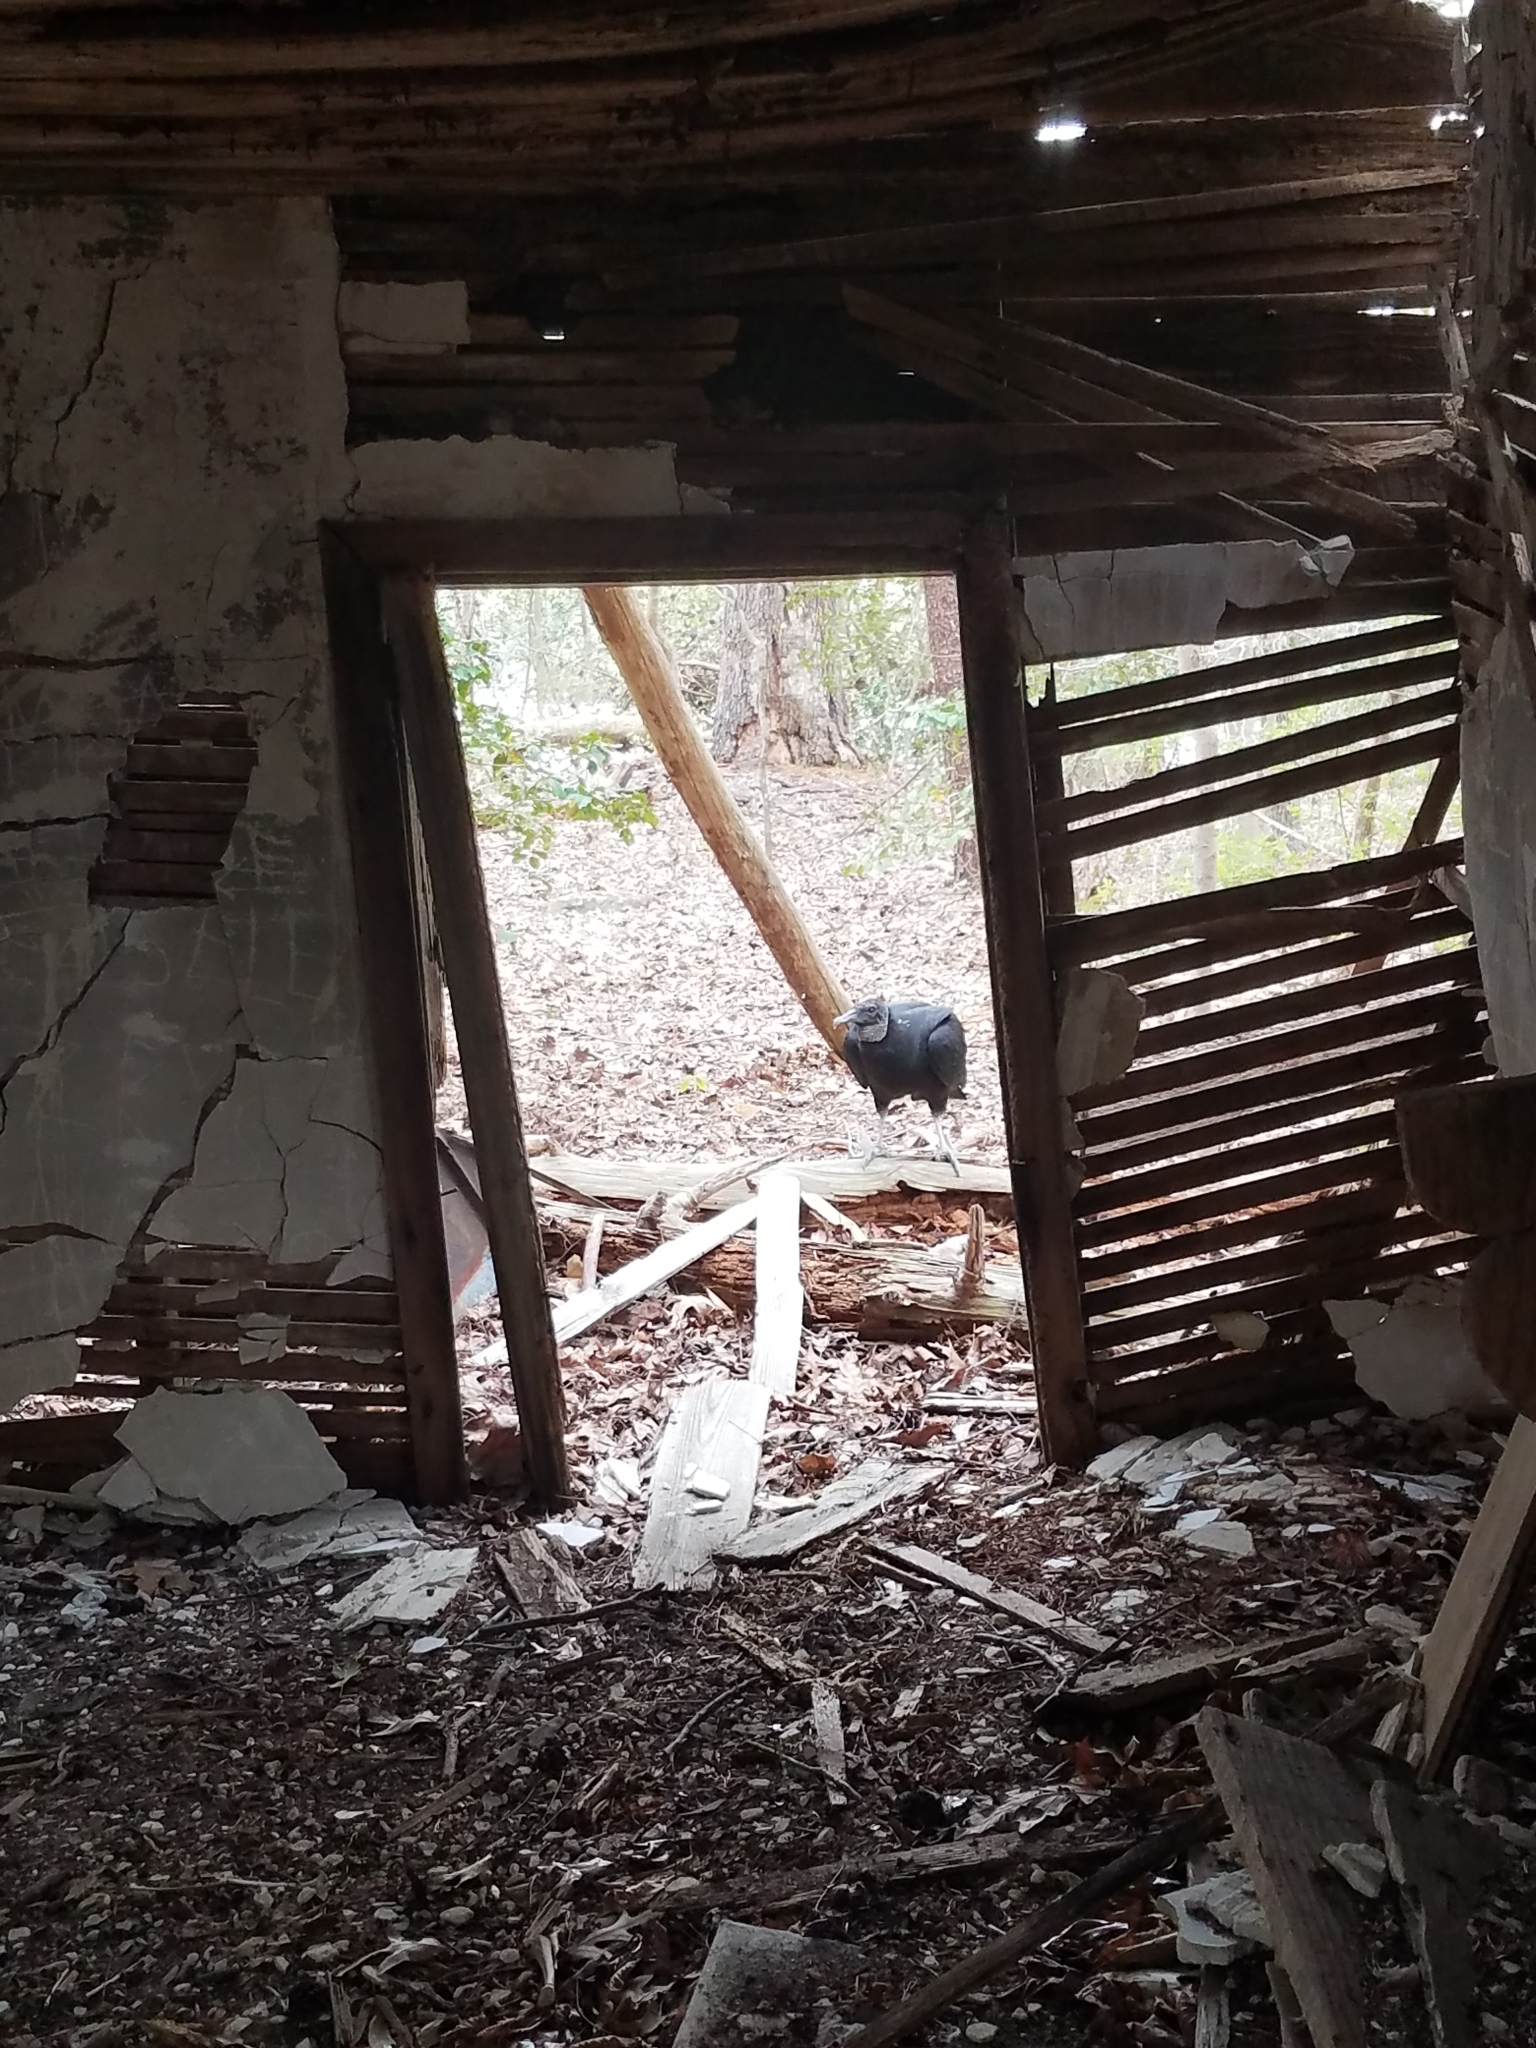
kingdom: Animalia
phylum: Chordata
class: Aves
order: Accipitriformes
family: Cathartidae
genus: Coragyps
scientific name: Coragyps atratus
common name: Black vulture
